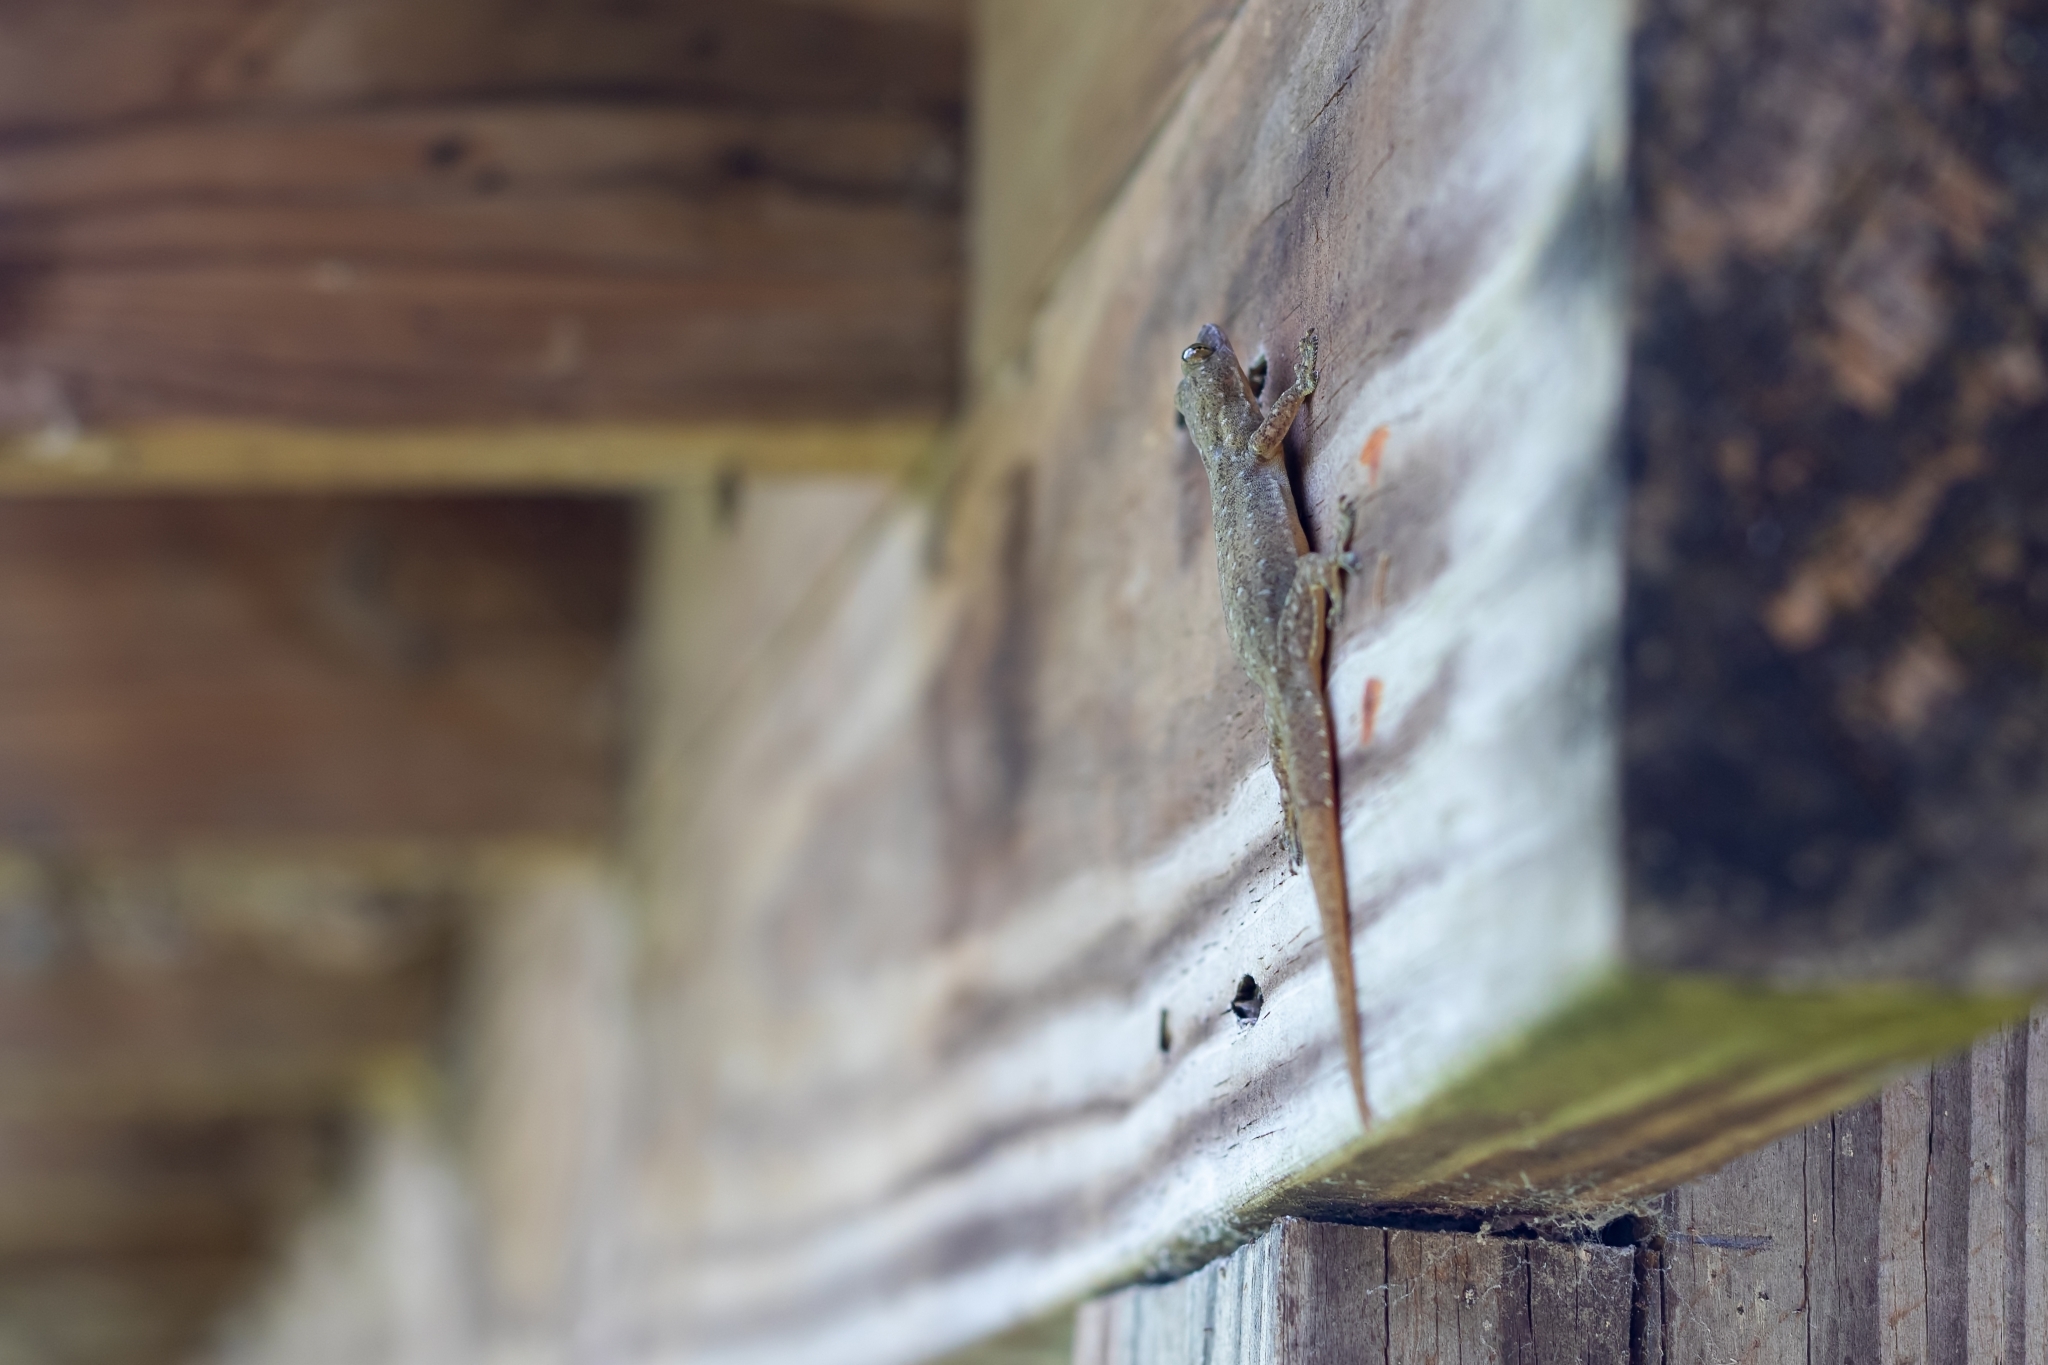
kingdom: Animalia
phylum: Chordata
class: Squamata
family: Gekkonidae
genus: Hemidactylus
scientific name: Hemidactylus garnotii
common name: Indo-pacific gecko
